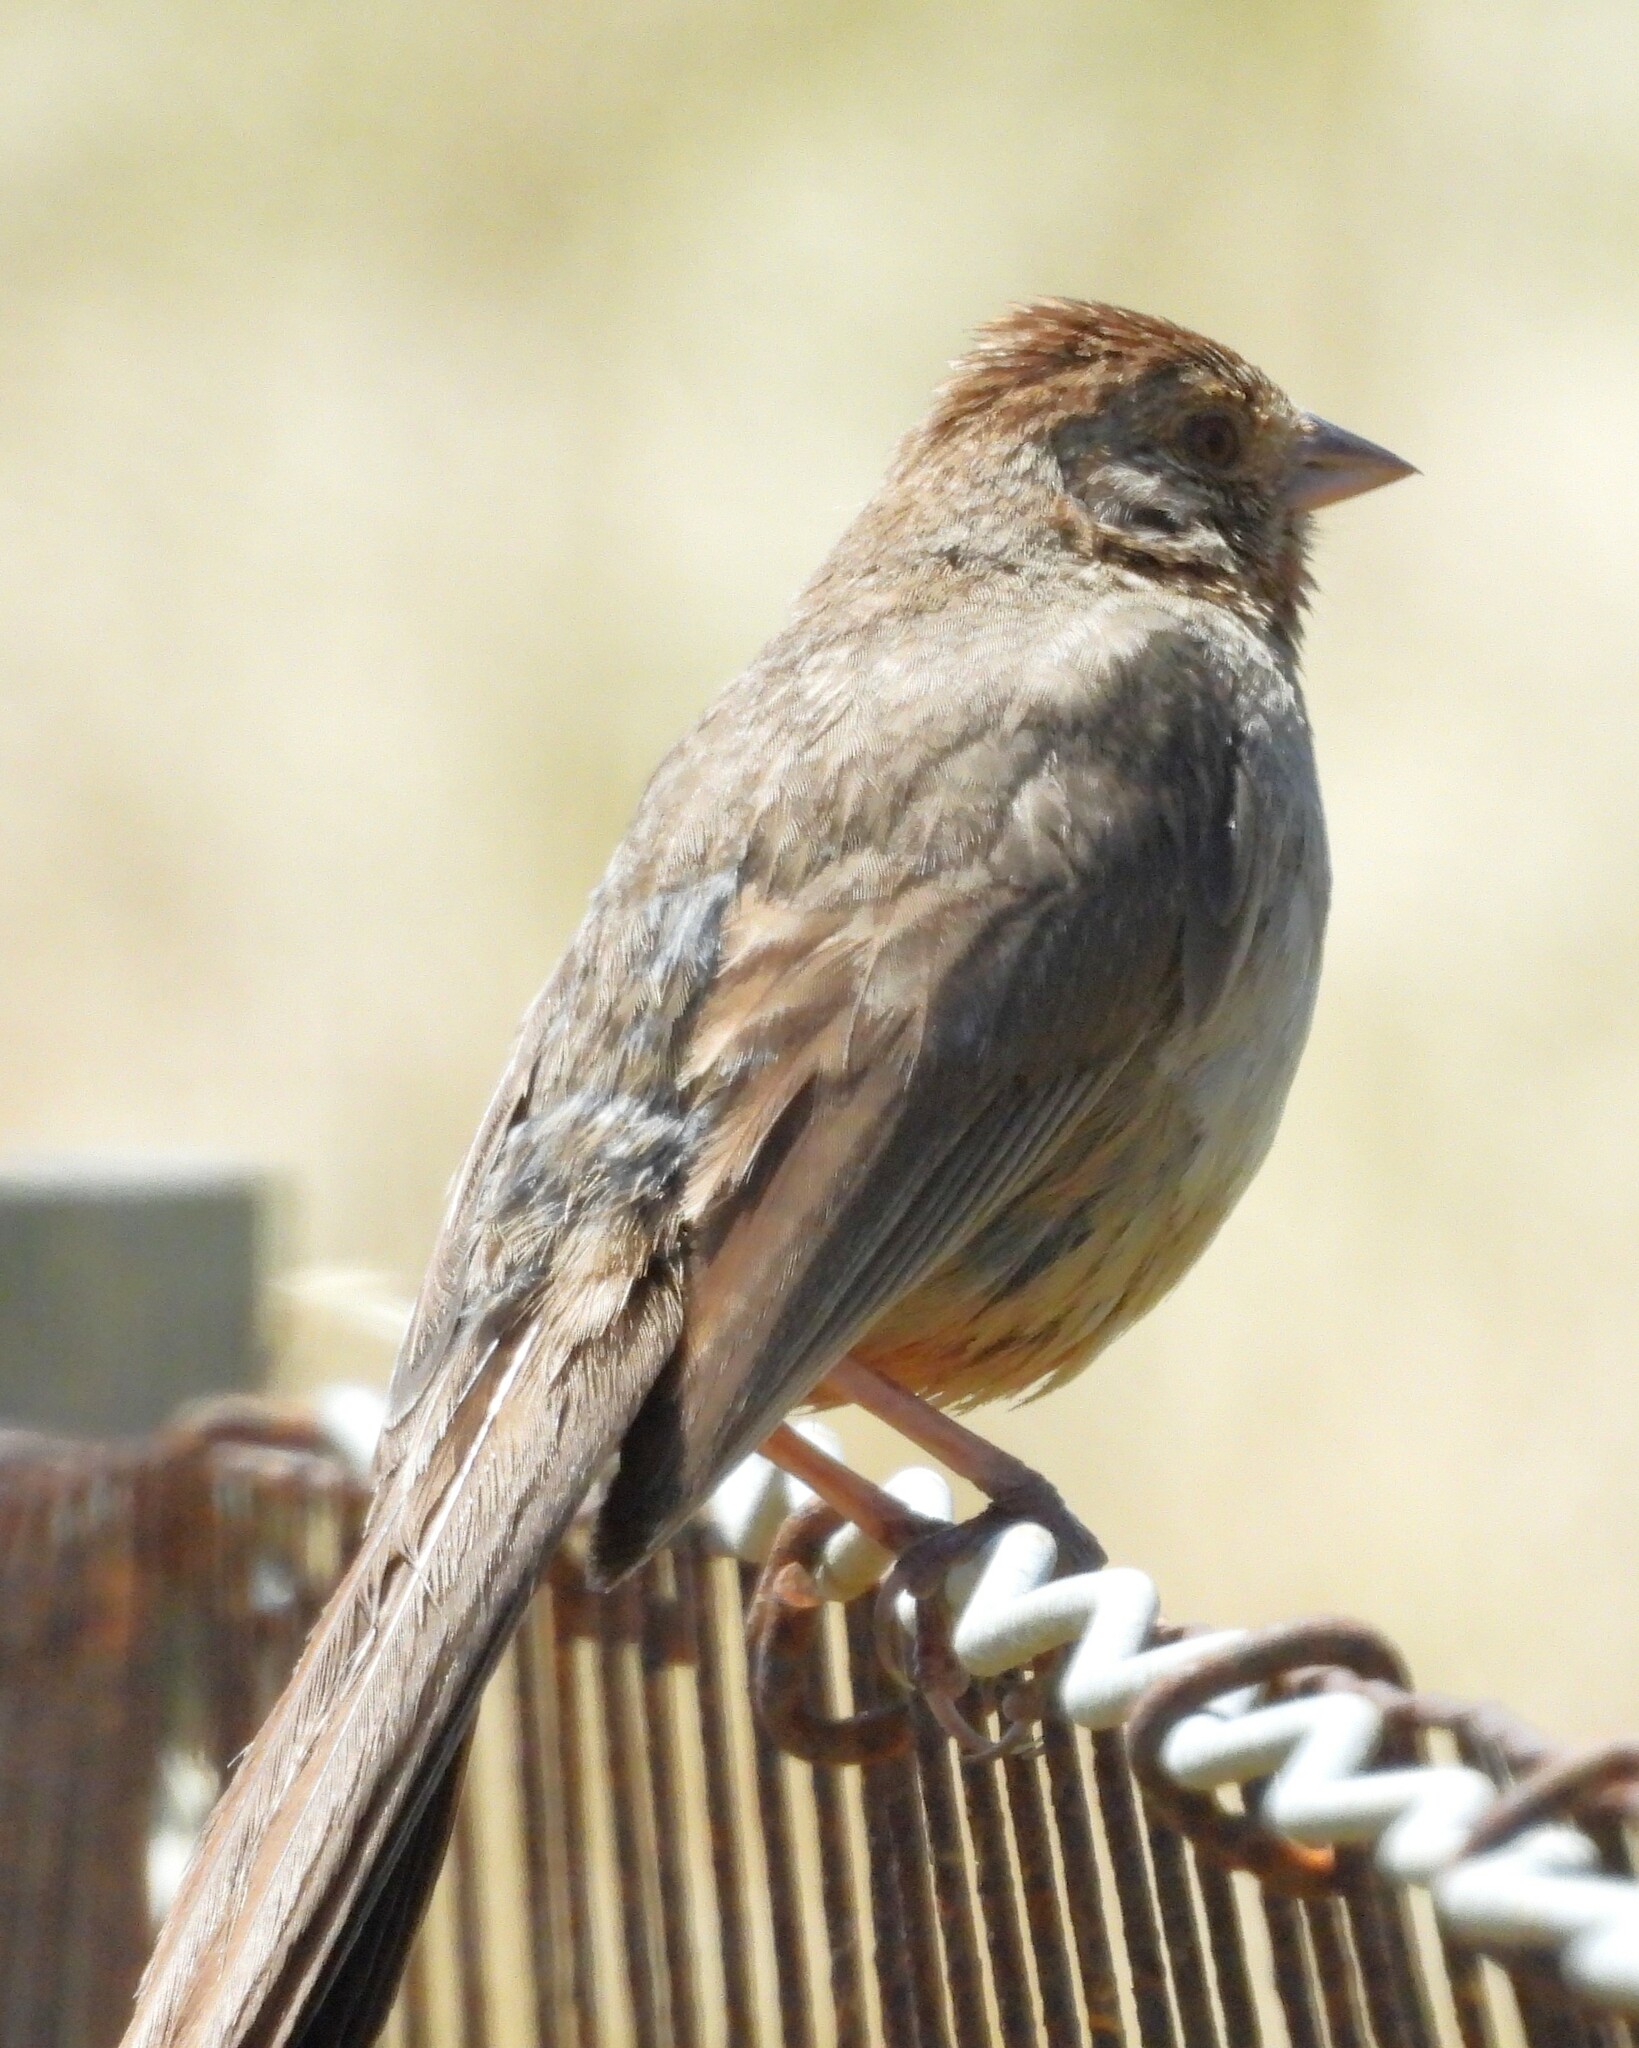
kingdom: Animalia
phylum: Chordata
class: Aves
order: Passeriformes
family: Passerellidae
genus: Melozone
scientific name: Melozone crissalis
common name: California towhee
